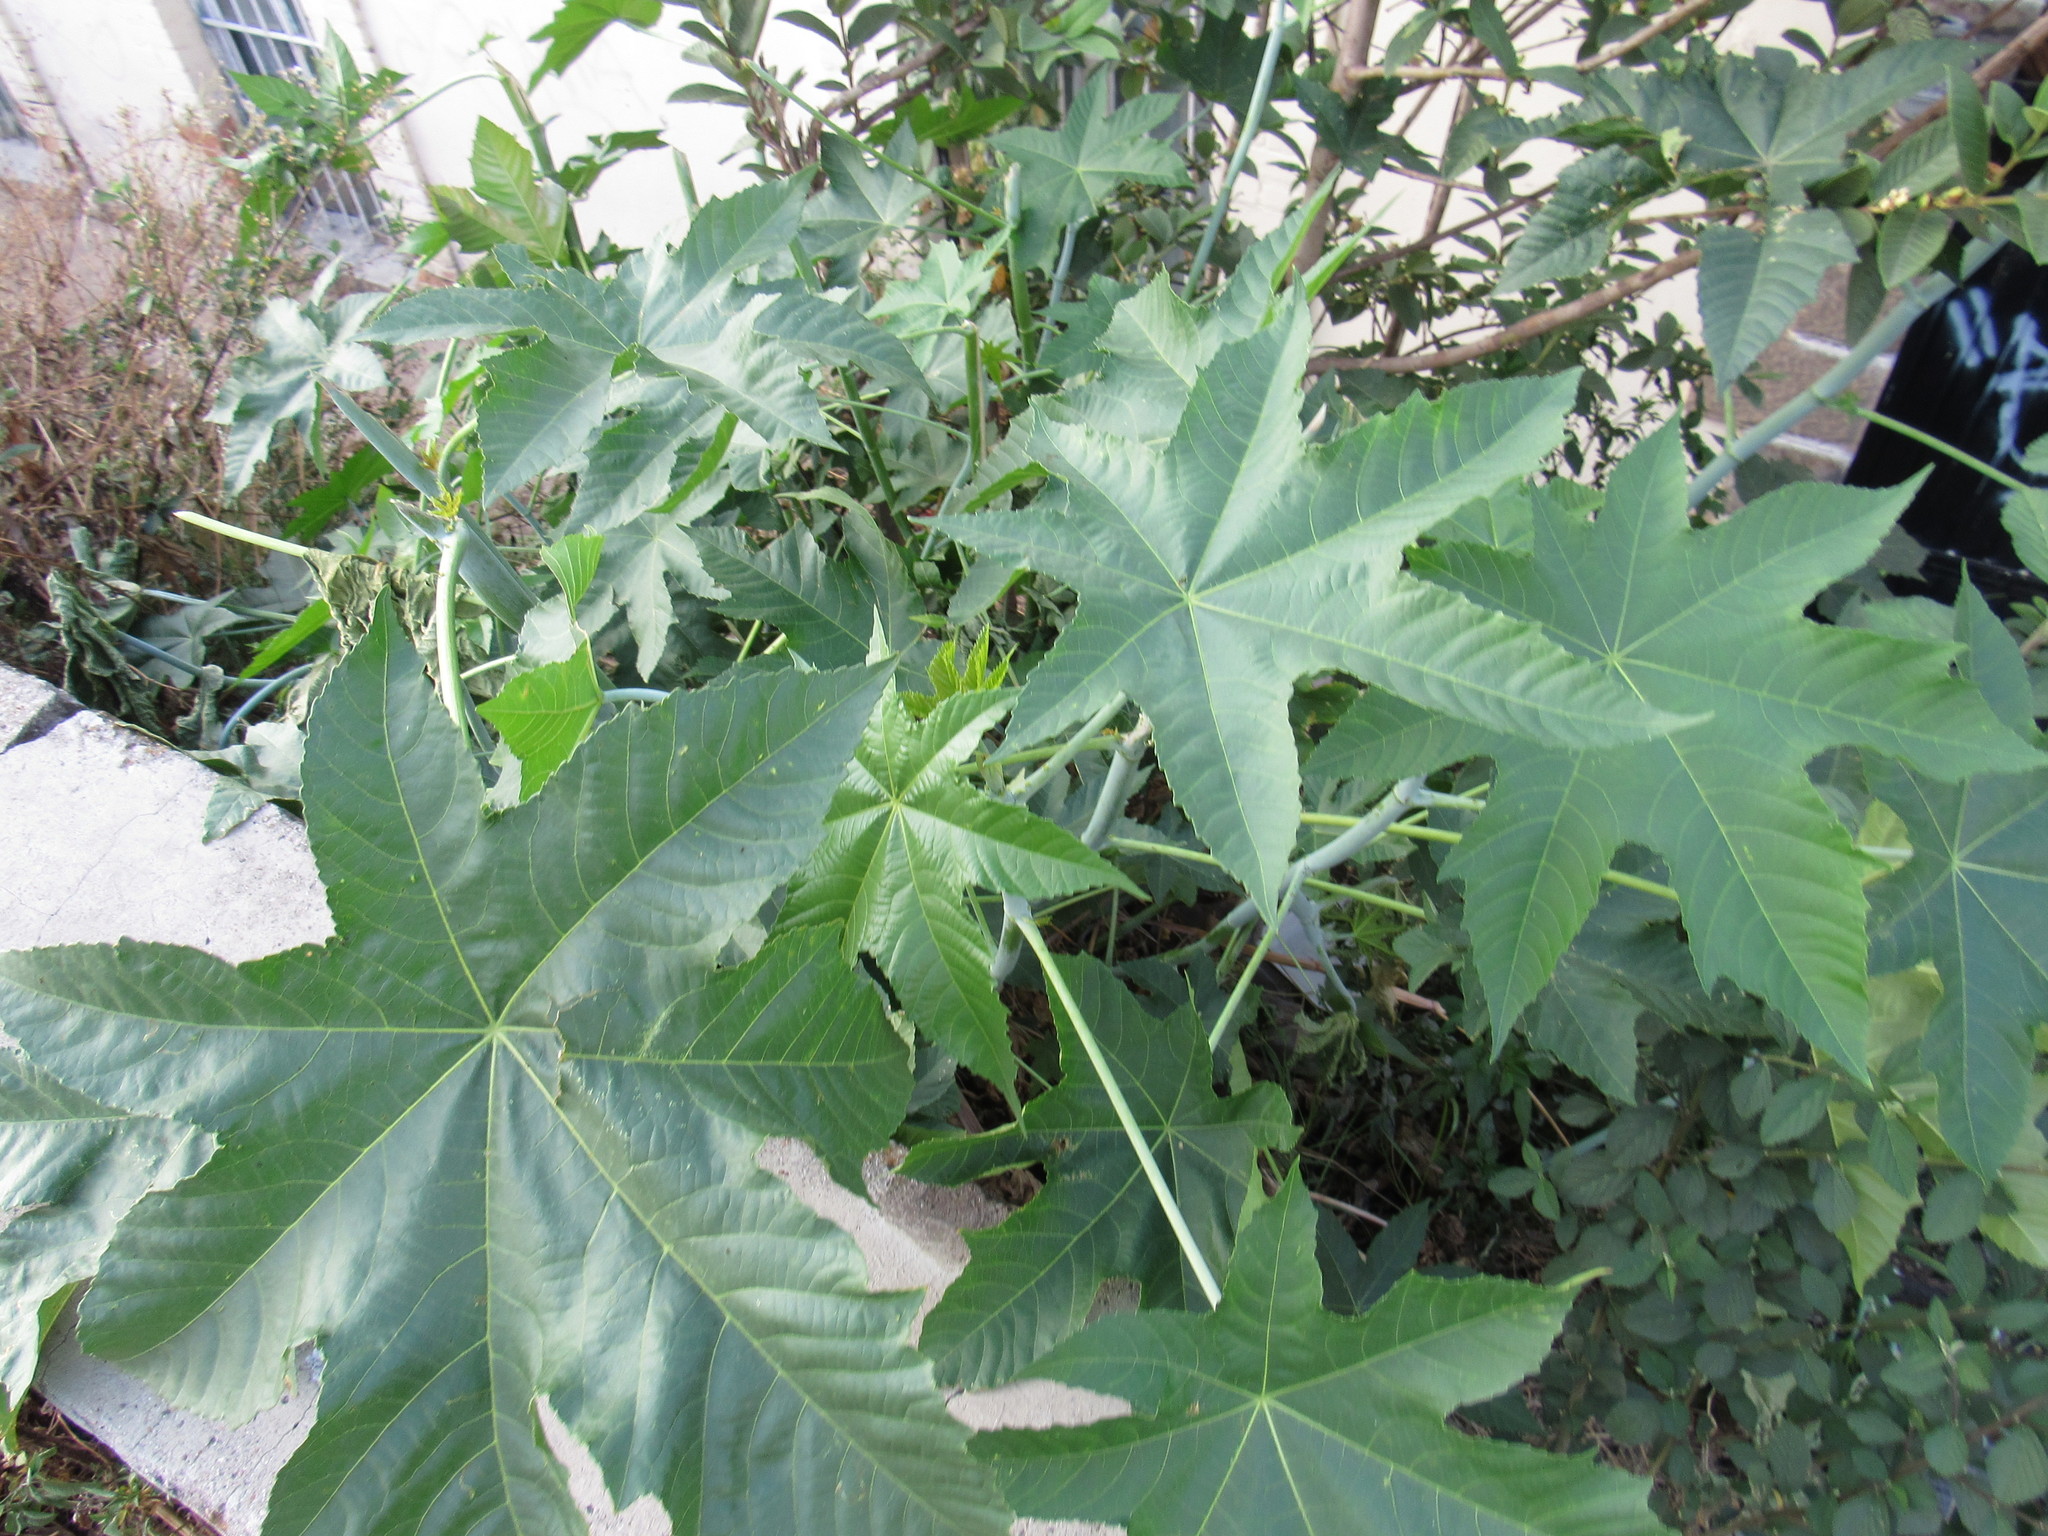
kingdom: Plantae
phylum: Tracheophyta
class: Magnoliopsida
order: Malpighiales
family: Euphorbiaceae
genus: Ricinus
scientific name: Ricinus communis
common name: Castor-oil-plant
